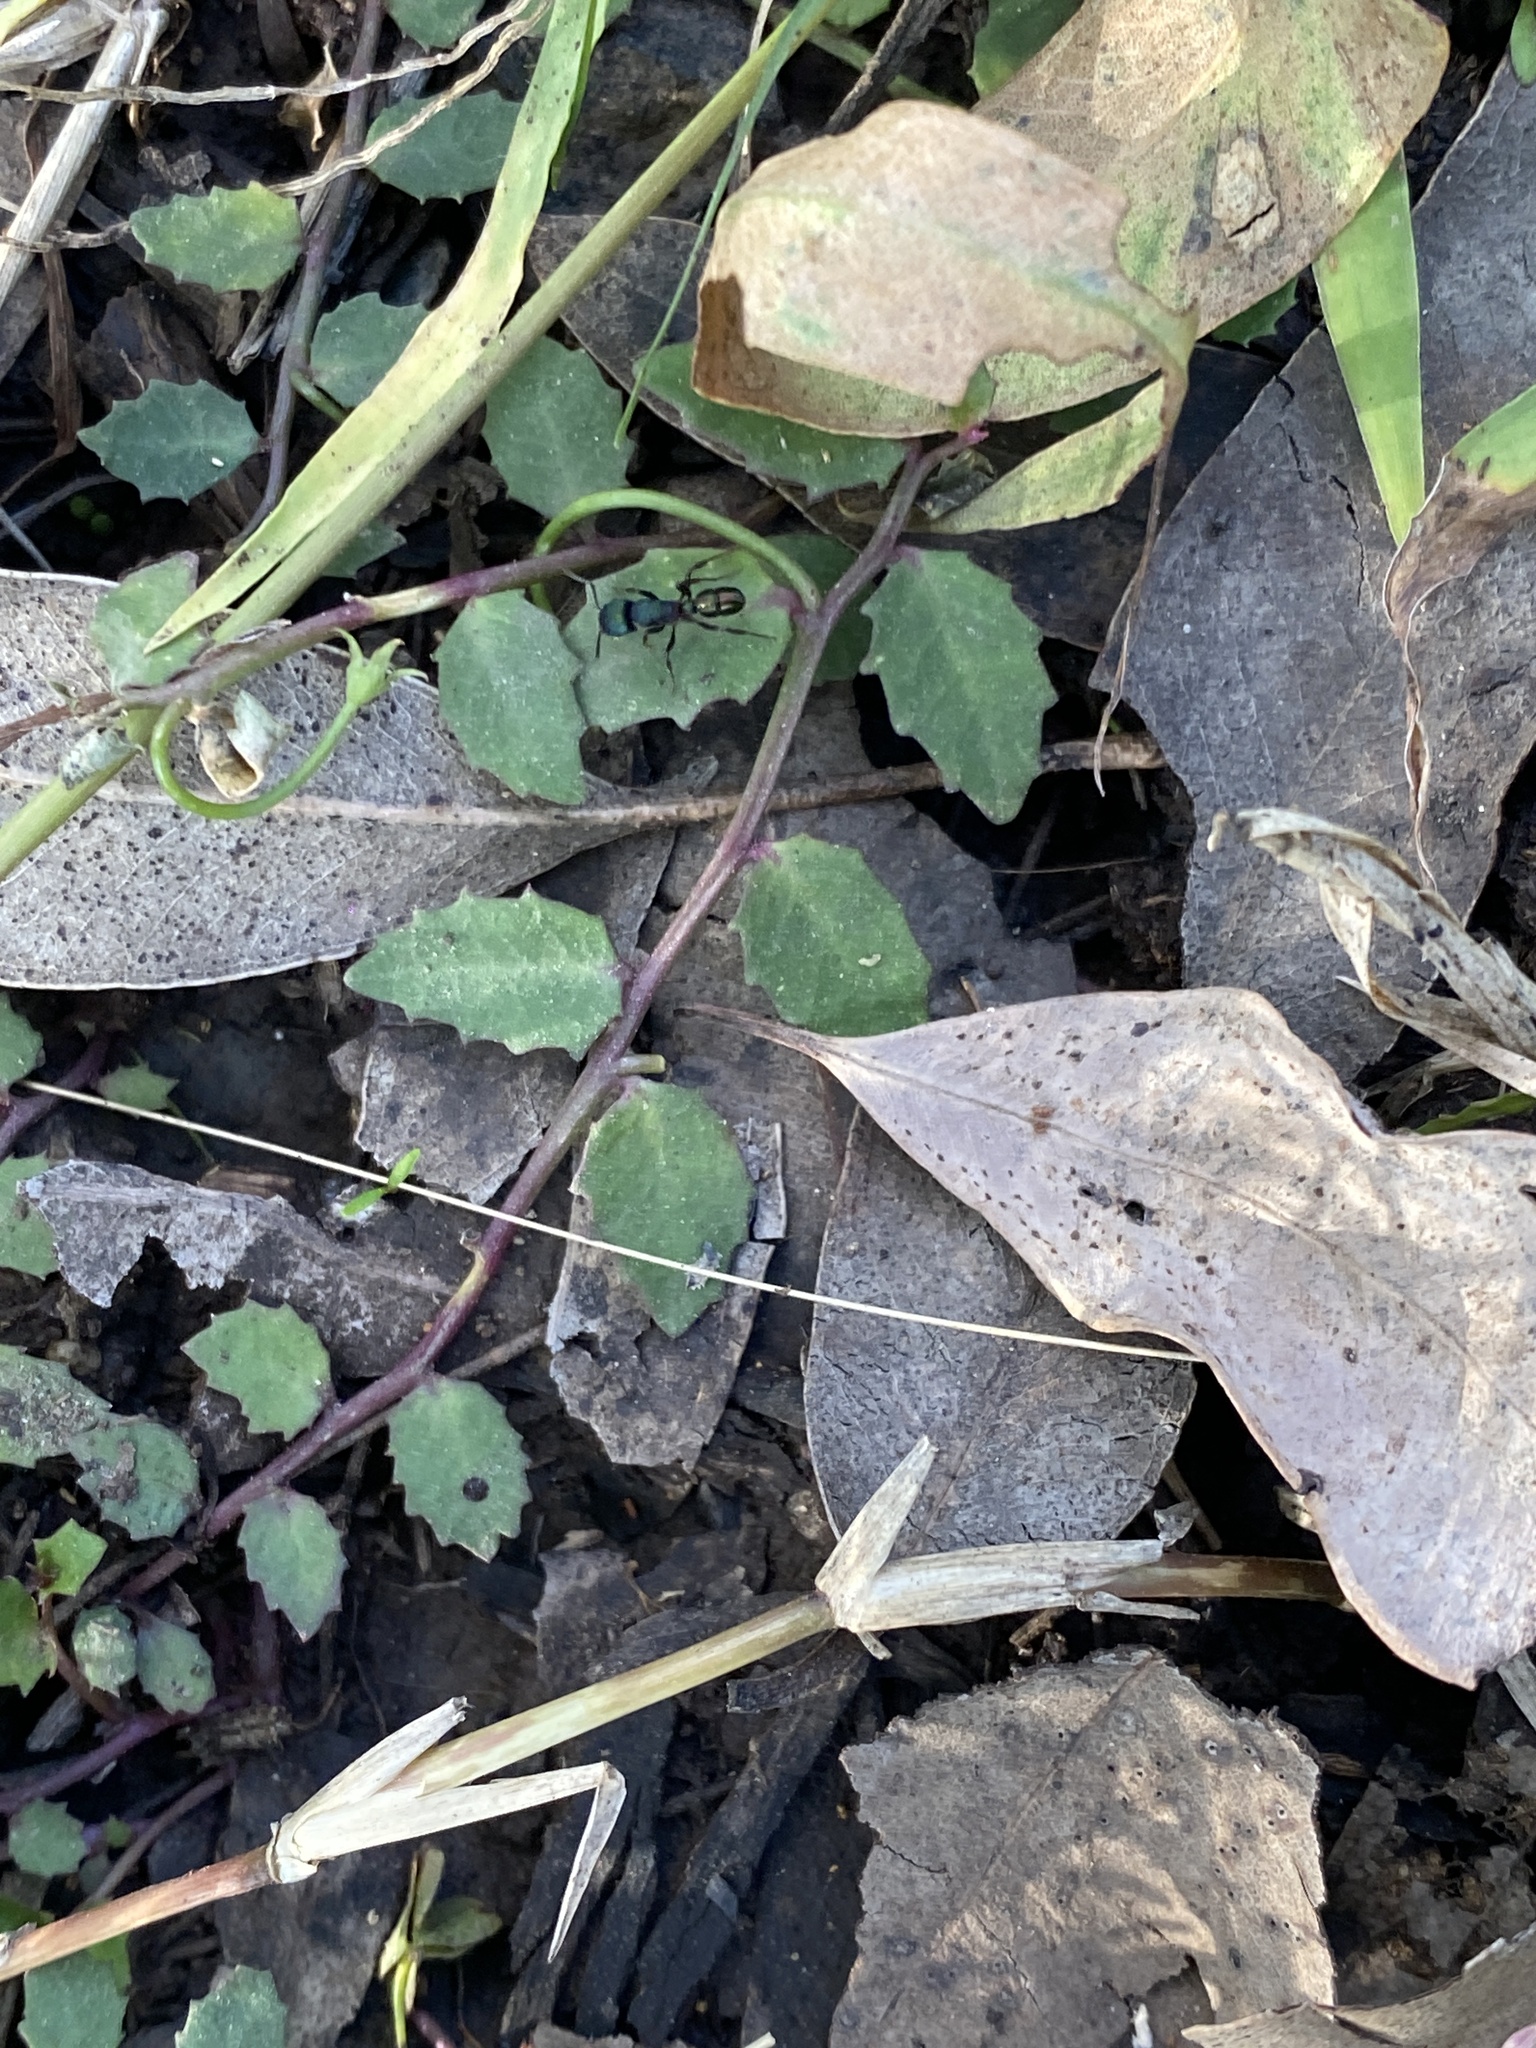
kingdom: Plantae
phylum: Tracheophyta
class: Magnoliopsida
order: Asterales
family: Campanulaceae
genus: Lobelia
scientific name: Lobelia purpurascens
